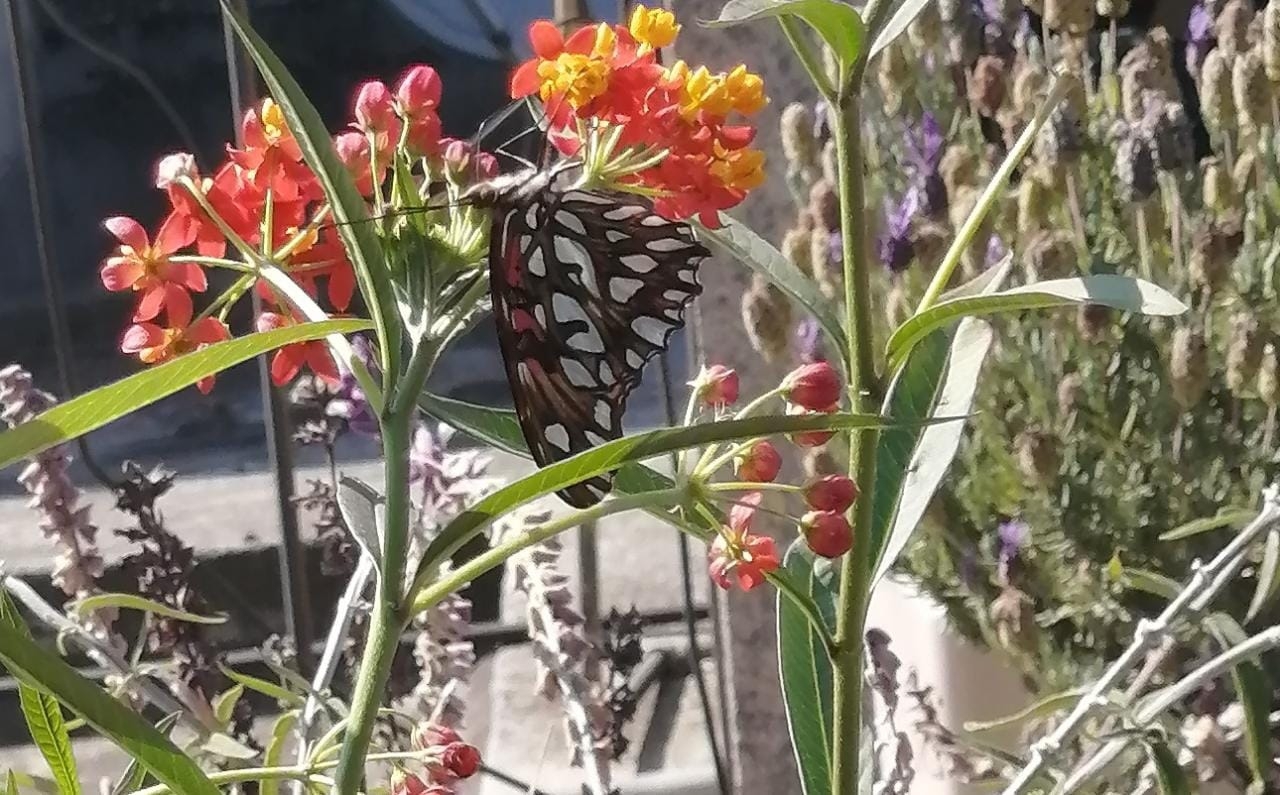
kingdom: Animalia
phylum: Arthropoda
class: Insecta
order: Lepidoptera
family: Nymphalidae
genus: Dione
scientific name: Dione moneta
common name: Mexican silverspot
